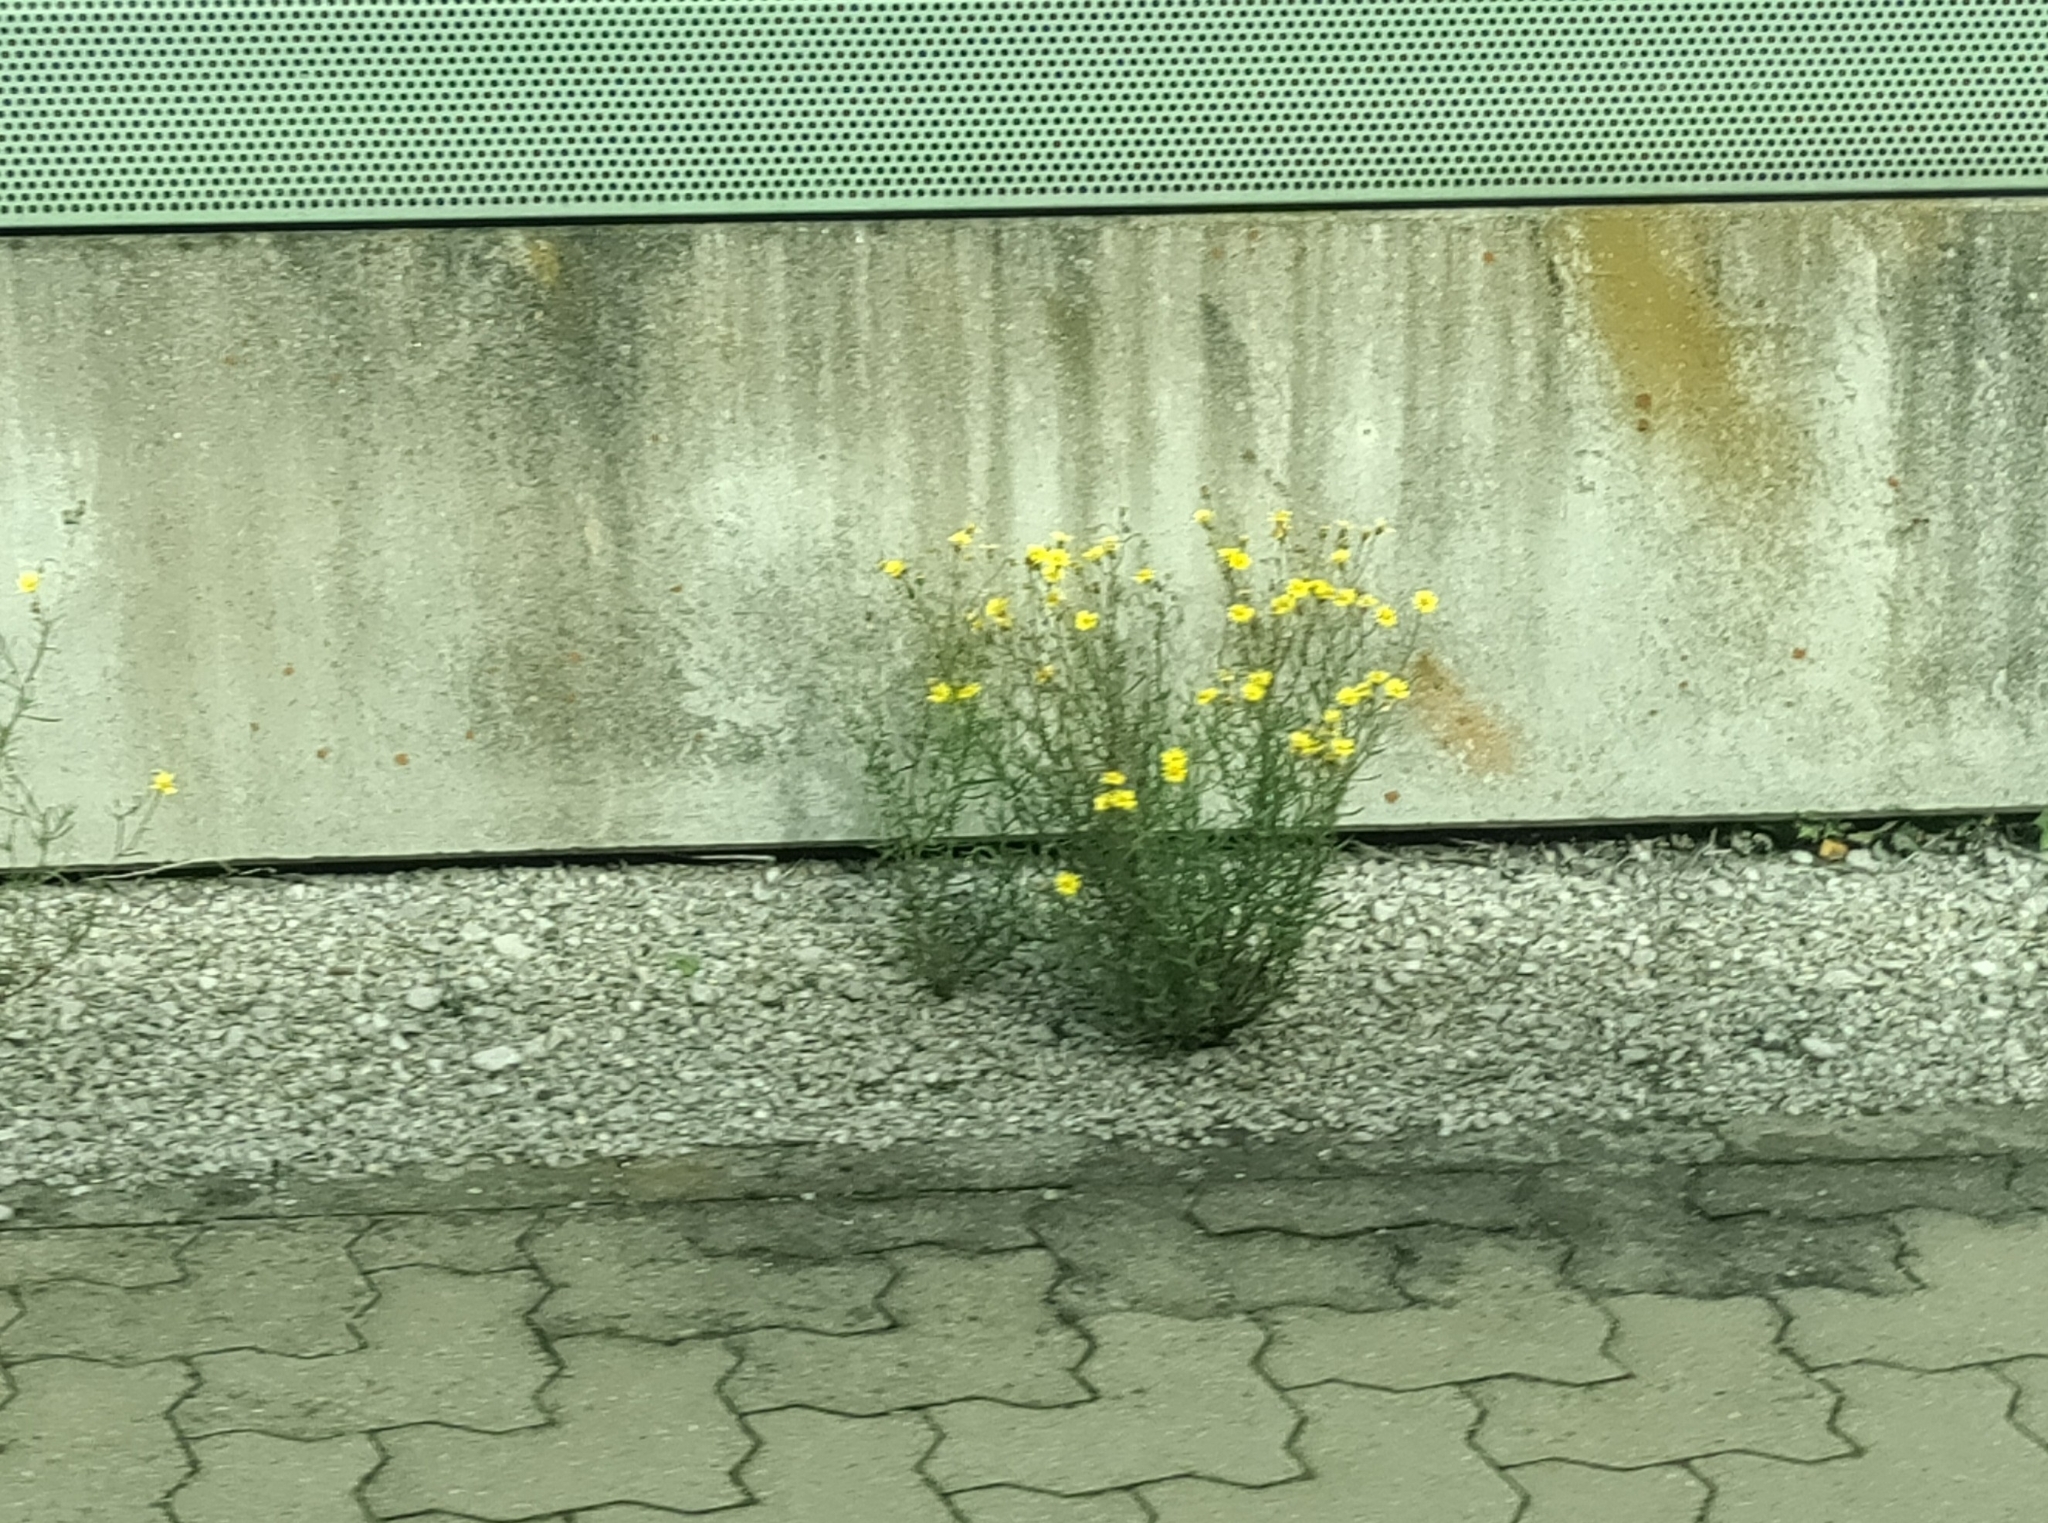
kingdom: Plantae
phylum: Tracheophyta
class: Magnoliopsida
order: Asterales
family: Asteraceae
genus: Senecio
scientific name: Senecio inaequidens
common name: Narrow-leaved ragwort
